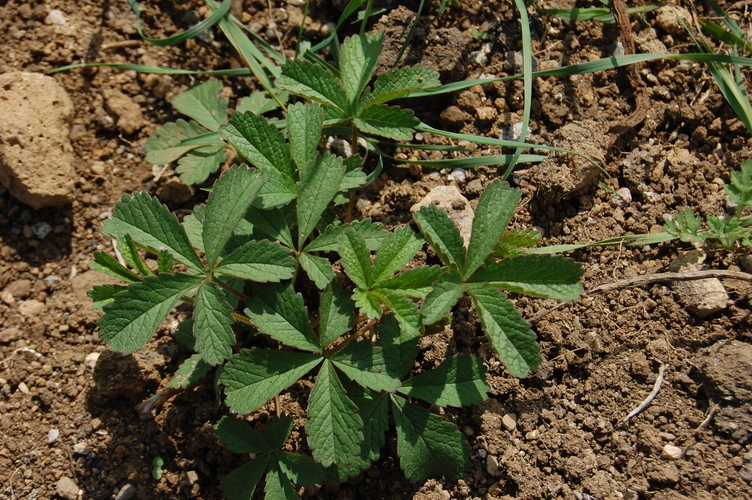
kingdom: Plantae
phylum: Tracheophyta
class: Magnoliopsida
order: Rosales
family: Rosaceae
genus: Potentilla
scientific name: Potentilla reptans
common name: Creeping cinquefoil
